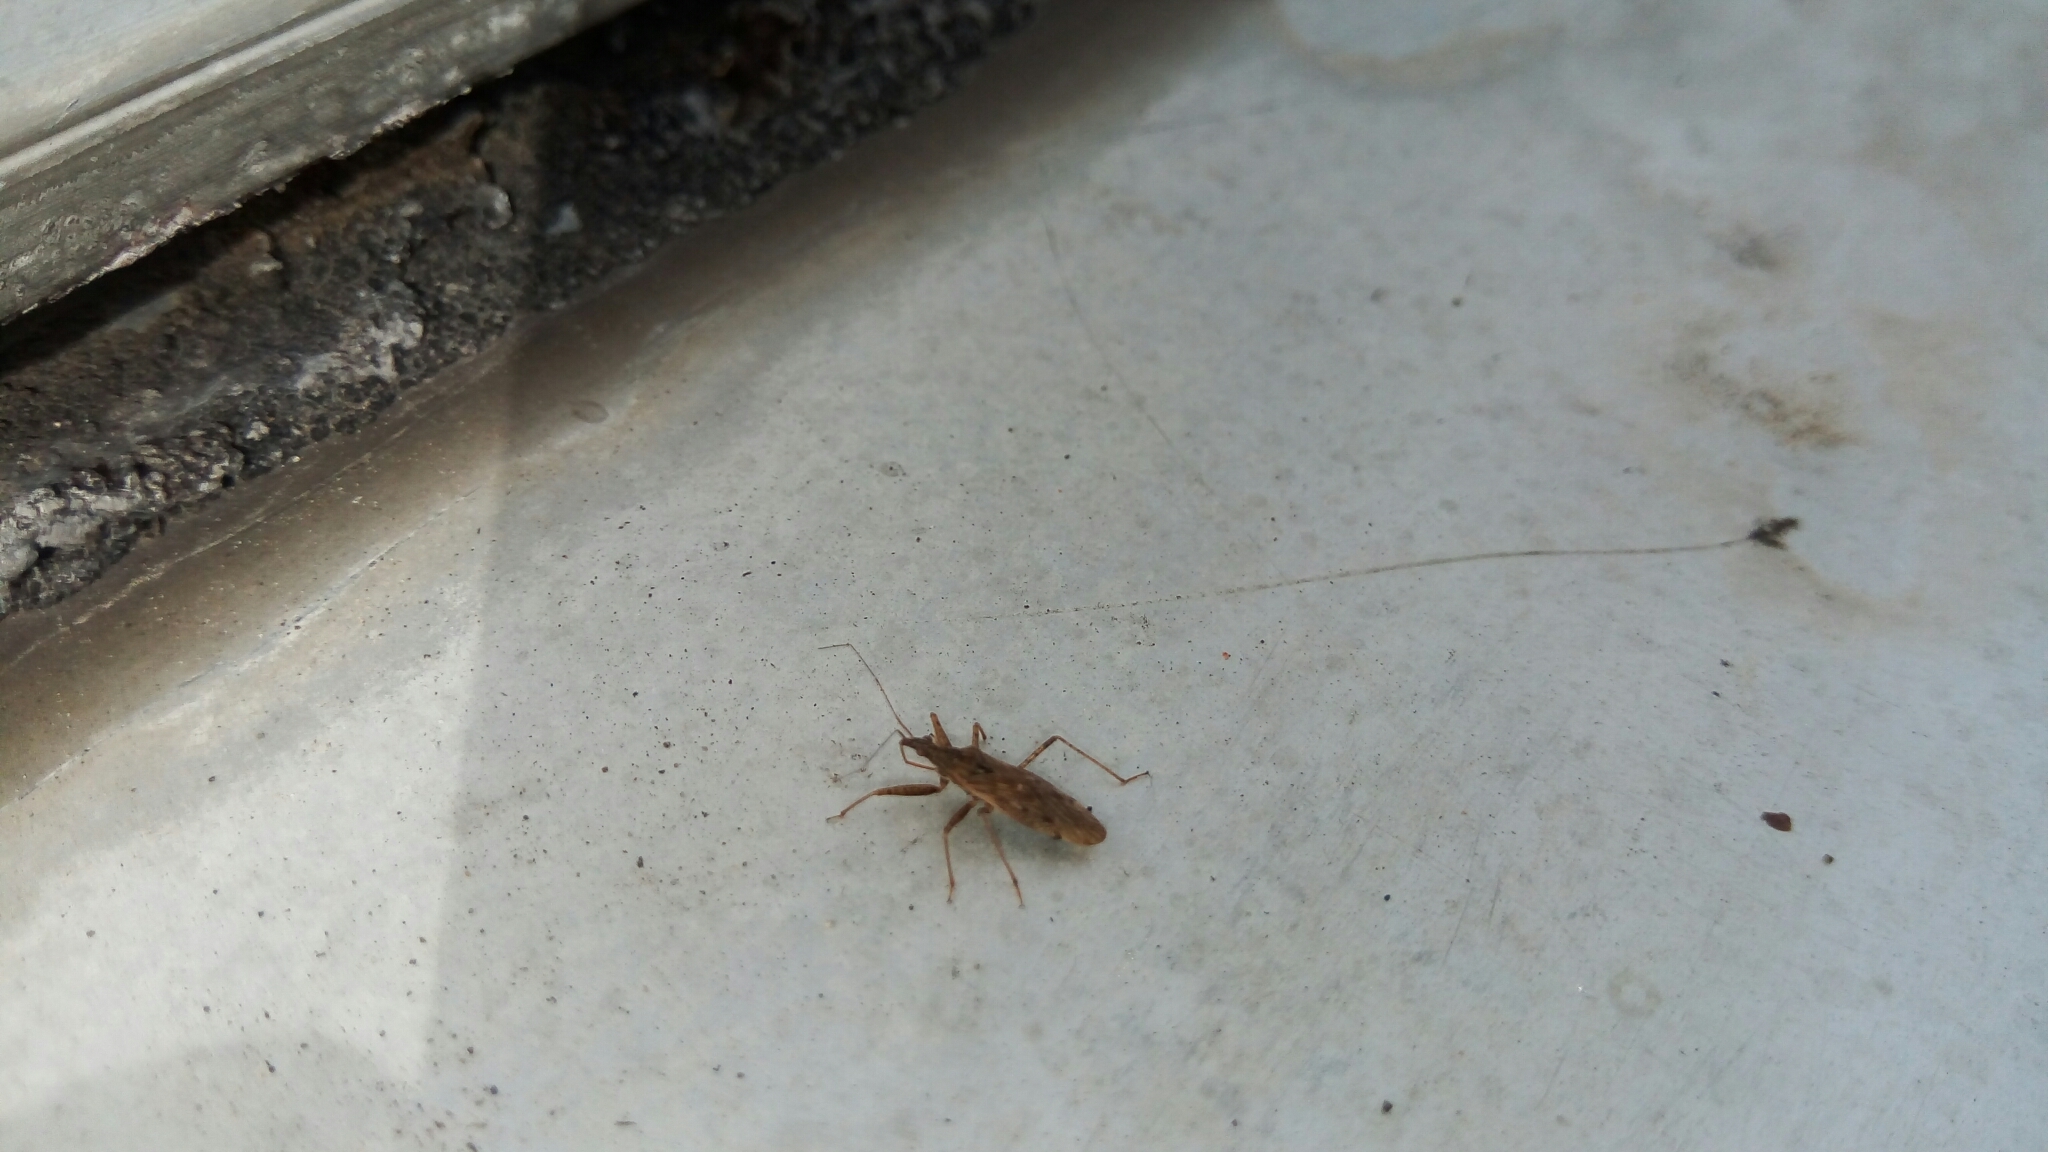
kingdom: Animalia
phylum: Arthropoda
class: Insecta
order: Hemiptera
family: Nabidae
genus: Nabis
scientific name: Nabis roseipennis
